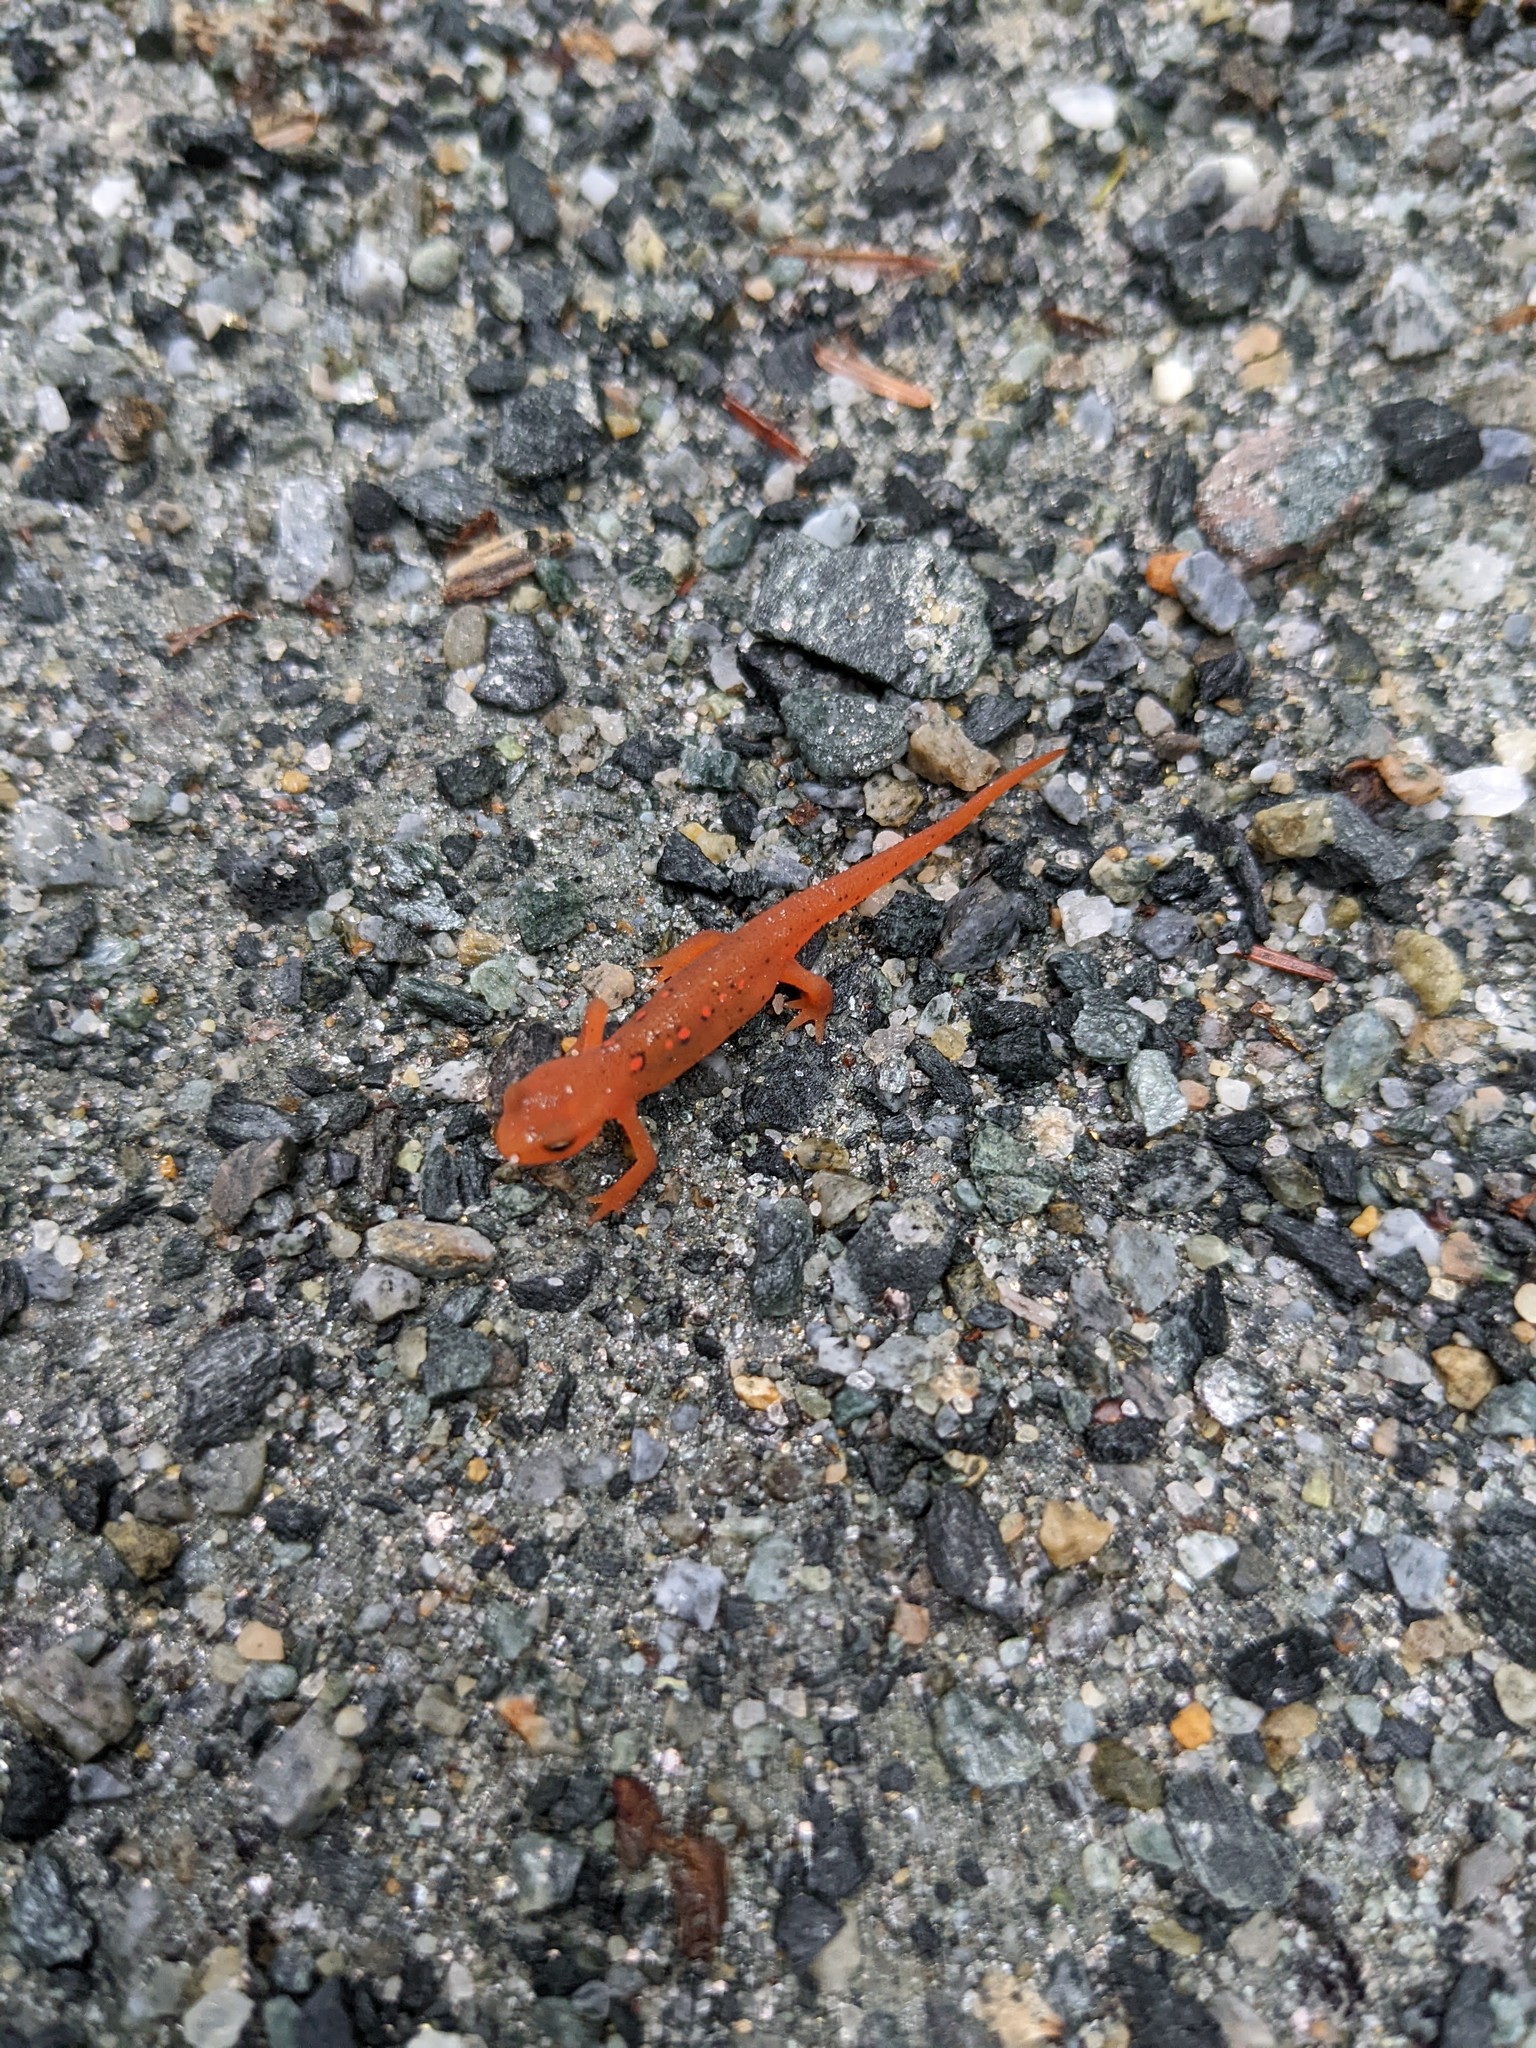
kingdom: Animalia
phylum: Chordata
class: Amphibia
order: Caudata
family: Salamandridae
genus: Notophthalmus
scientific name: Notophthalmus viridescens
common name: Eastern newt
